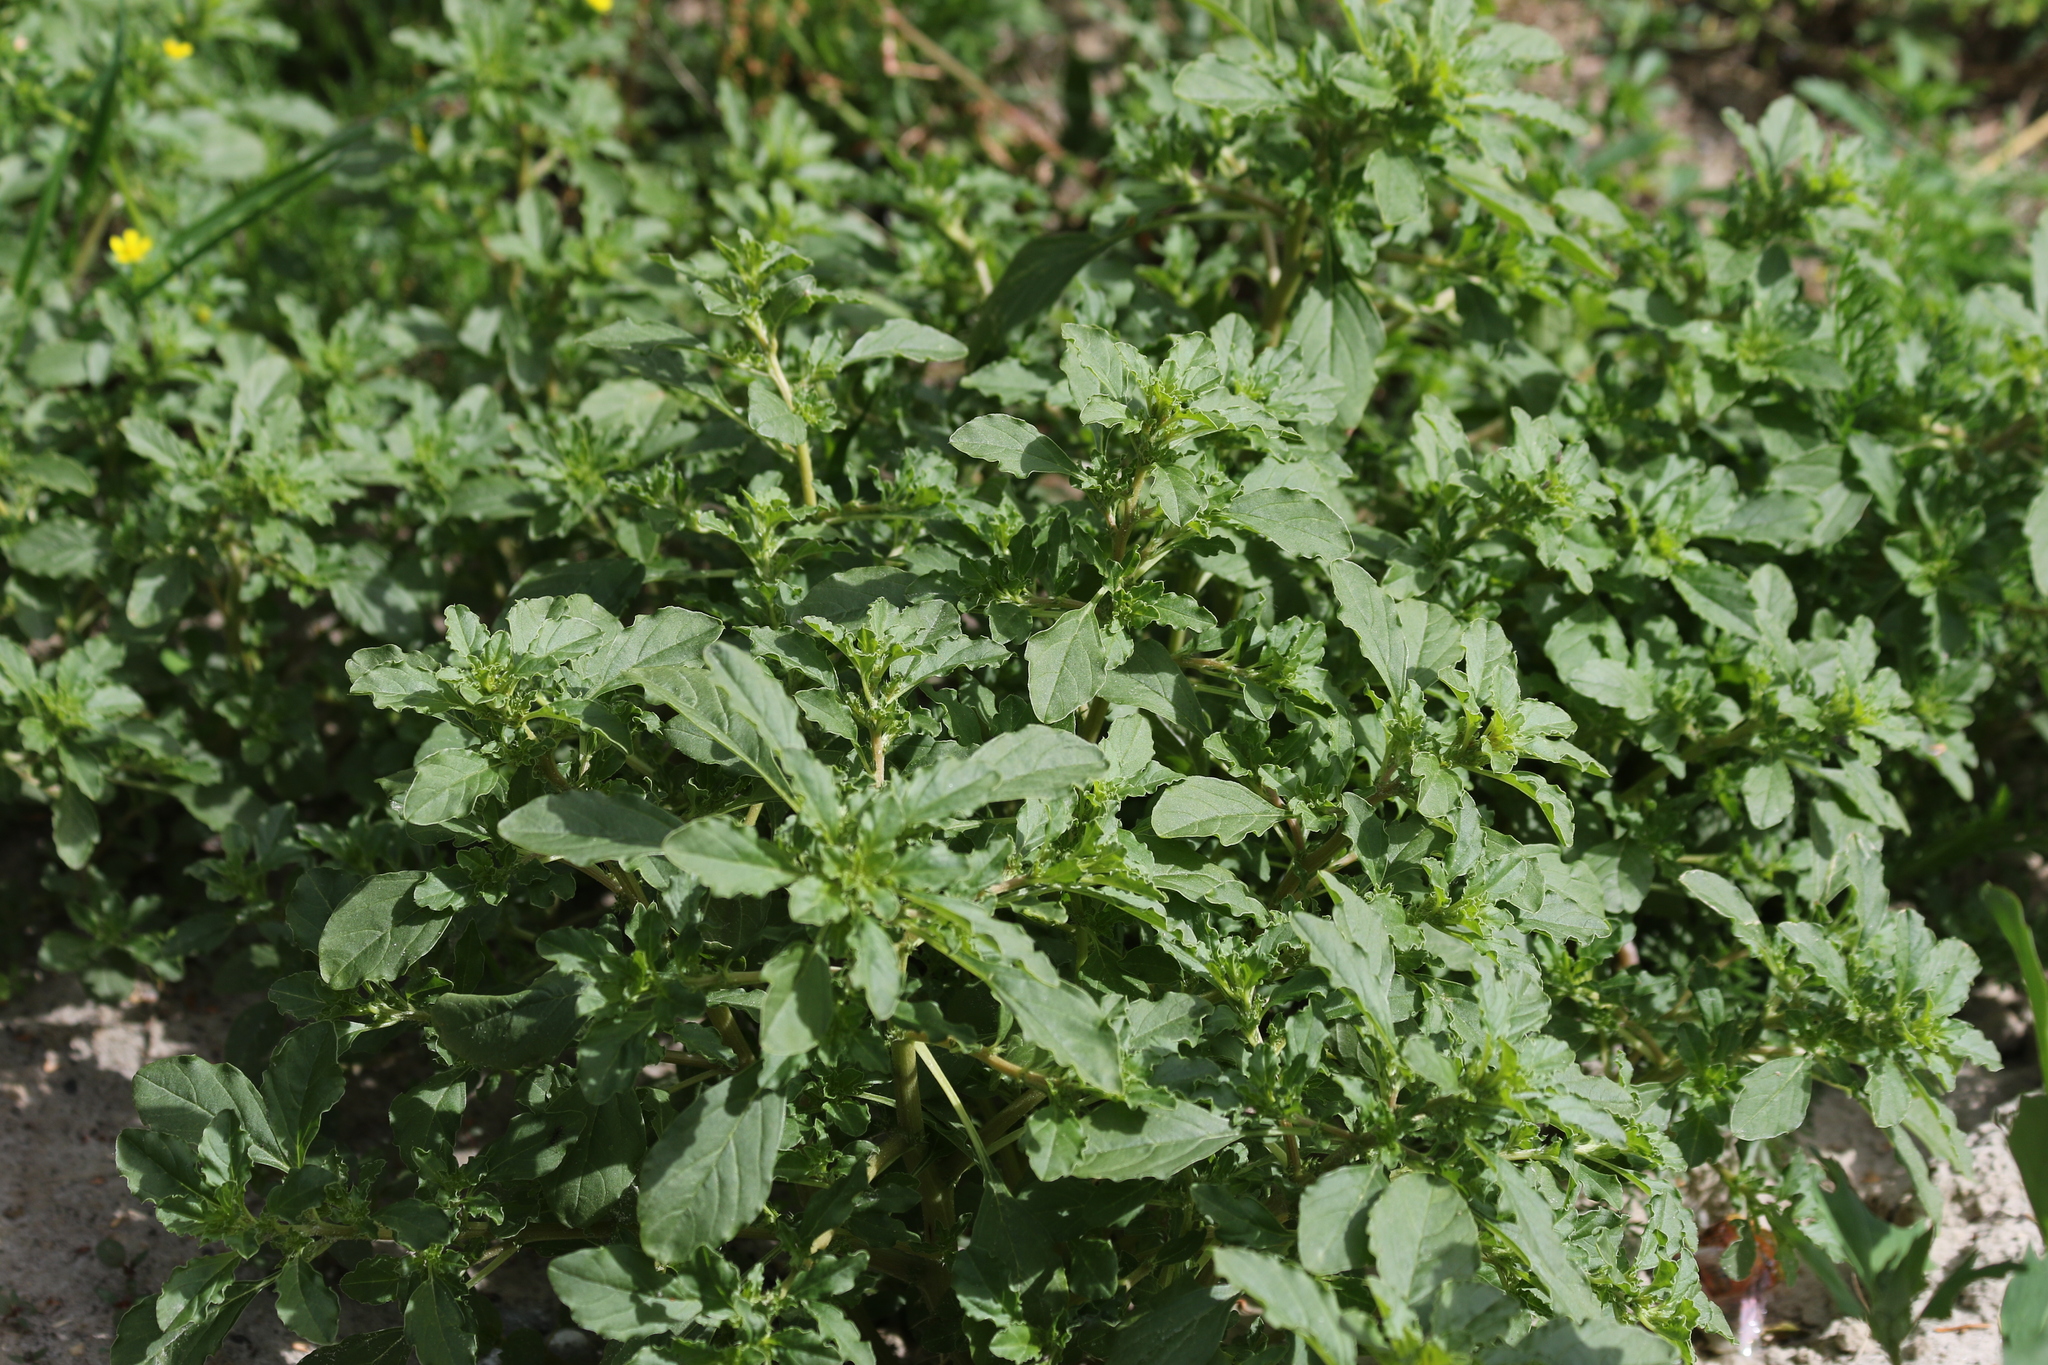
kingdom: Plantae
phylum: Tracheophyta
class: Magnoliopsida
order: Caryophyllales
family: Amaranthaceae
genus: Amaranthus
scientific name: Amaranthus albus
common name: White pigweed
